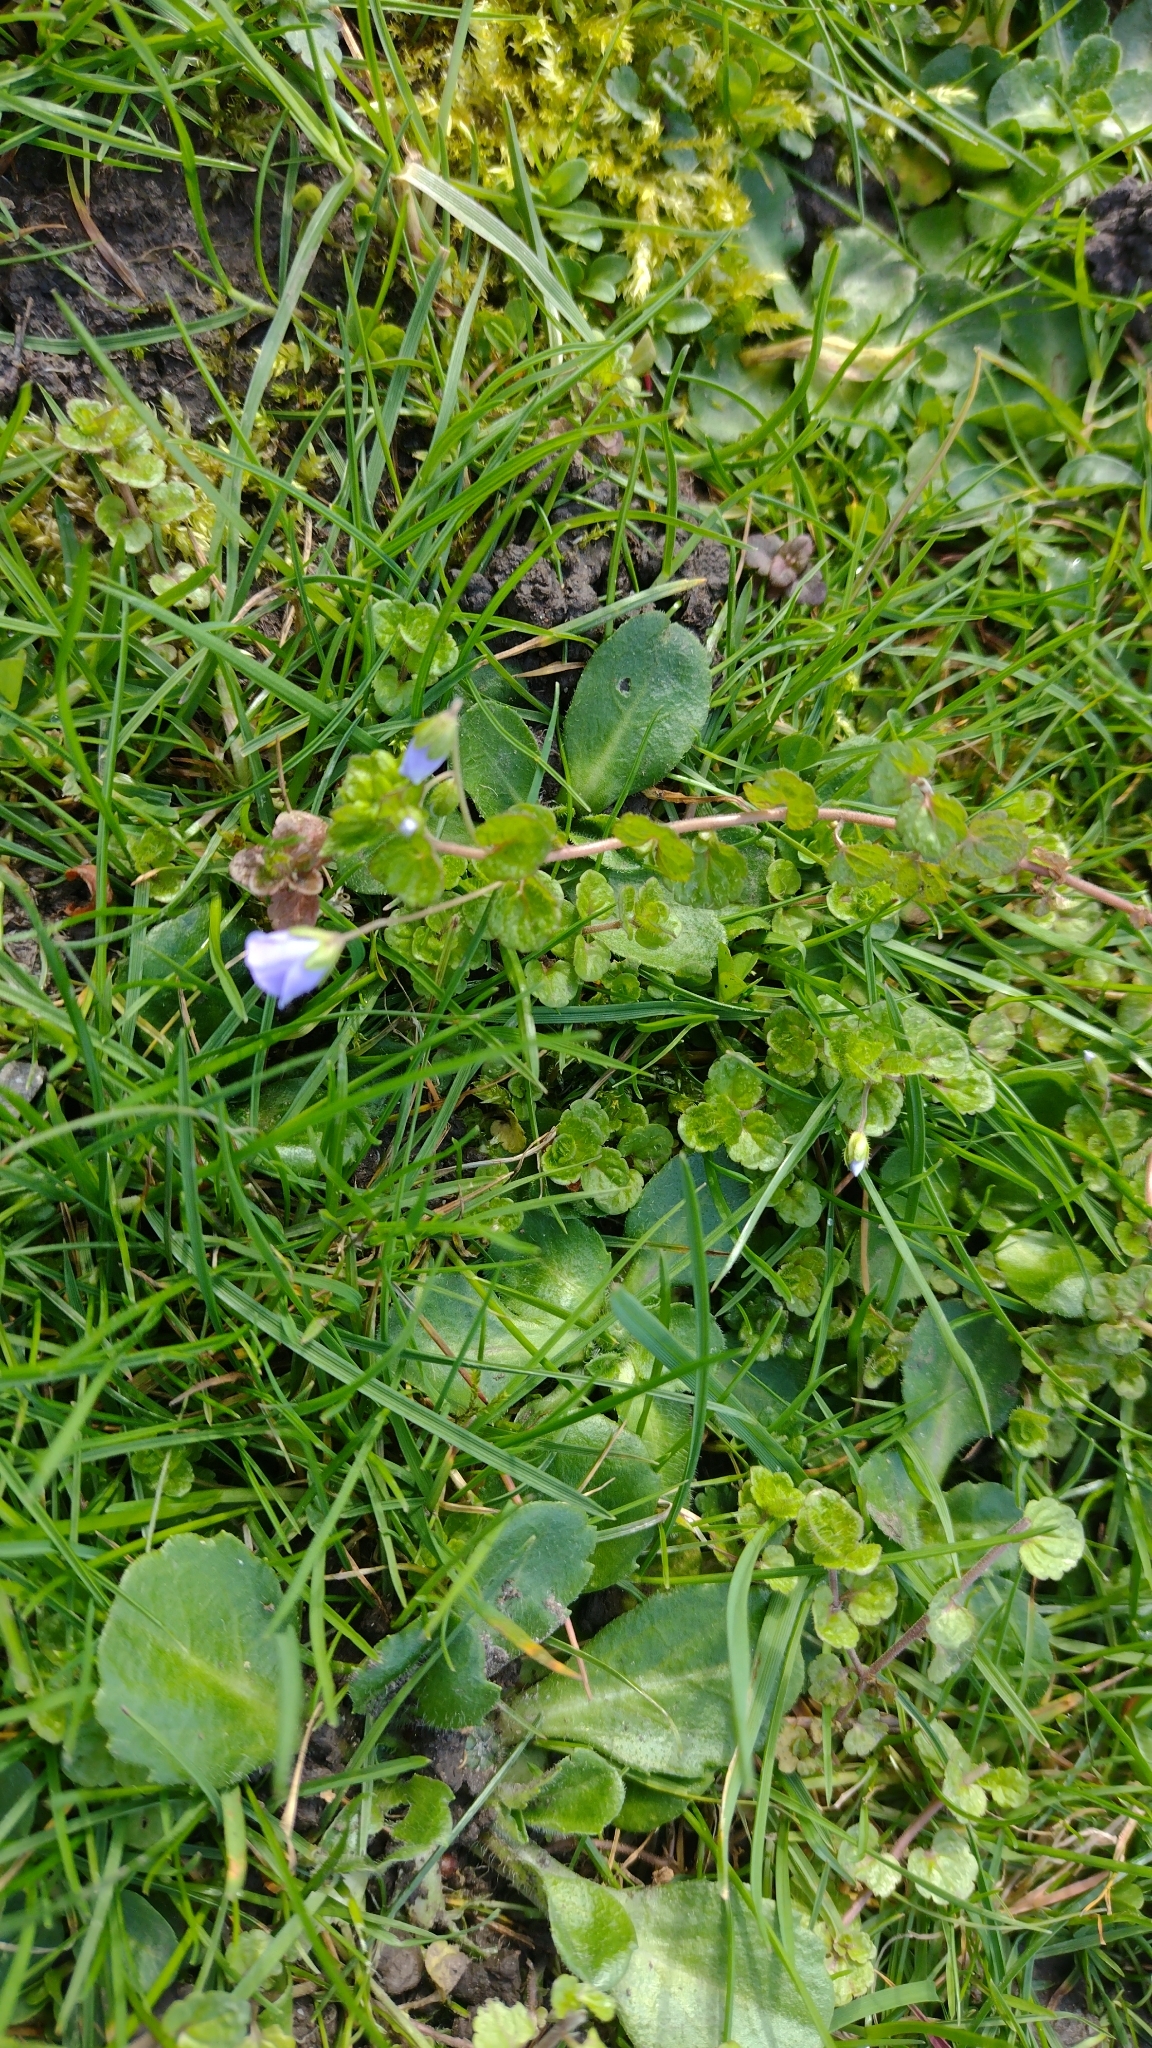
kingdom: Plantae
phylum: Tracheophyta
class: Magnoliopsida
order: Lamiales
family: Plantaginaceae
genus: Veronica
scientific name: Veronica filiformis
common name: Slender speedwell
